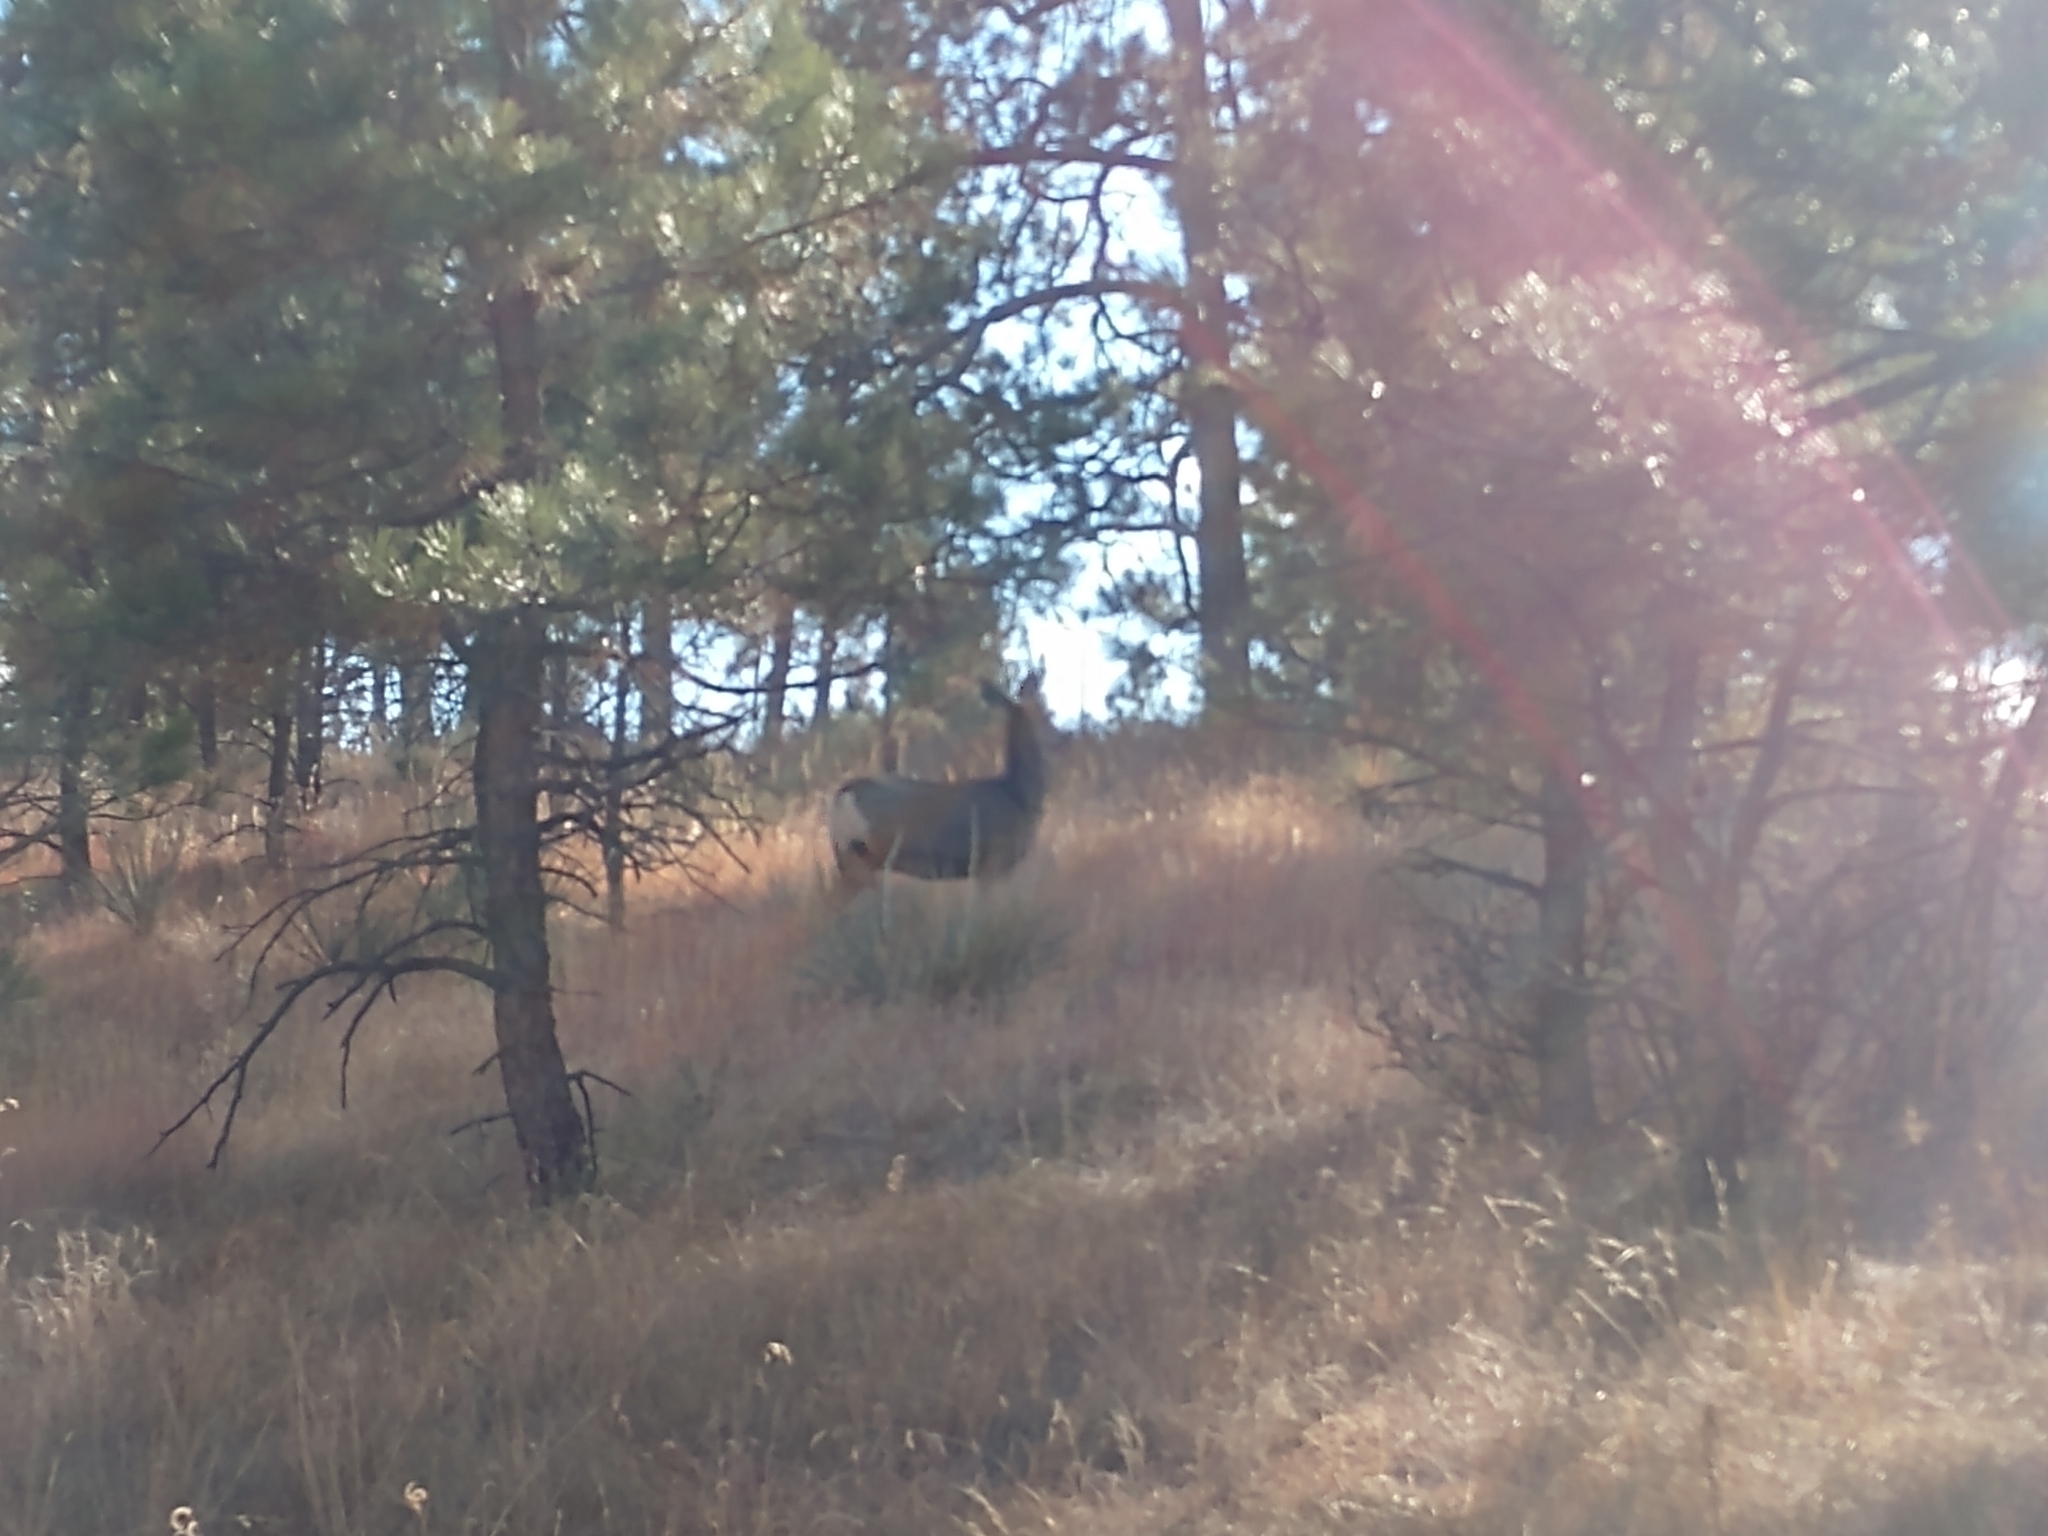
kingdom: Animalia
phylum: Chordata
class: Mammalia
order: Artiodactyla
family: Cervidae
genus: Odocoileus
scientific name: Odocoileus hemionus
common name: Mule deer
